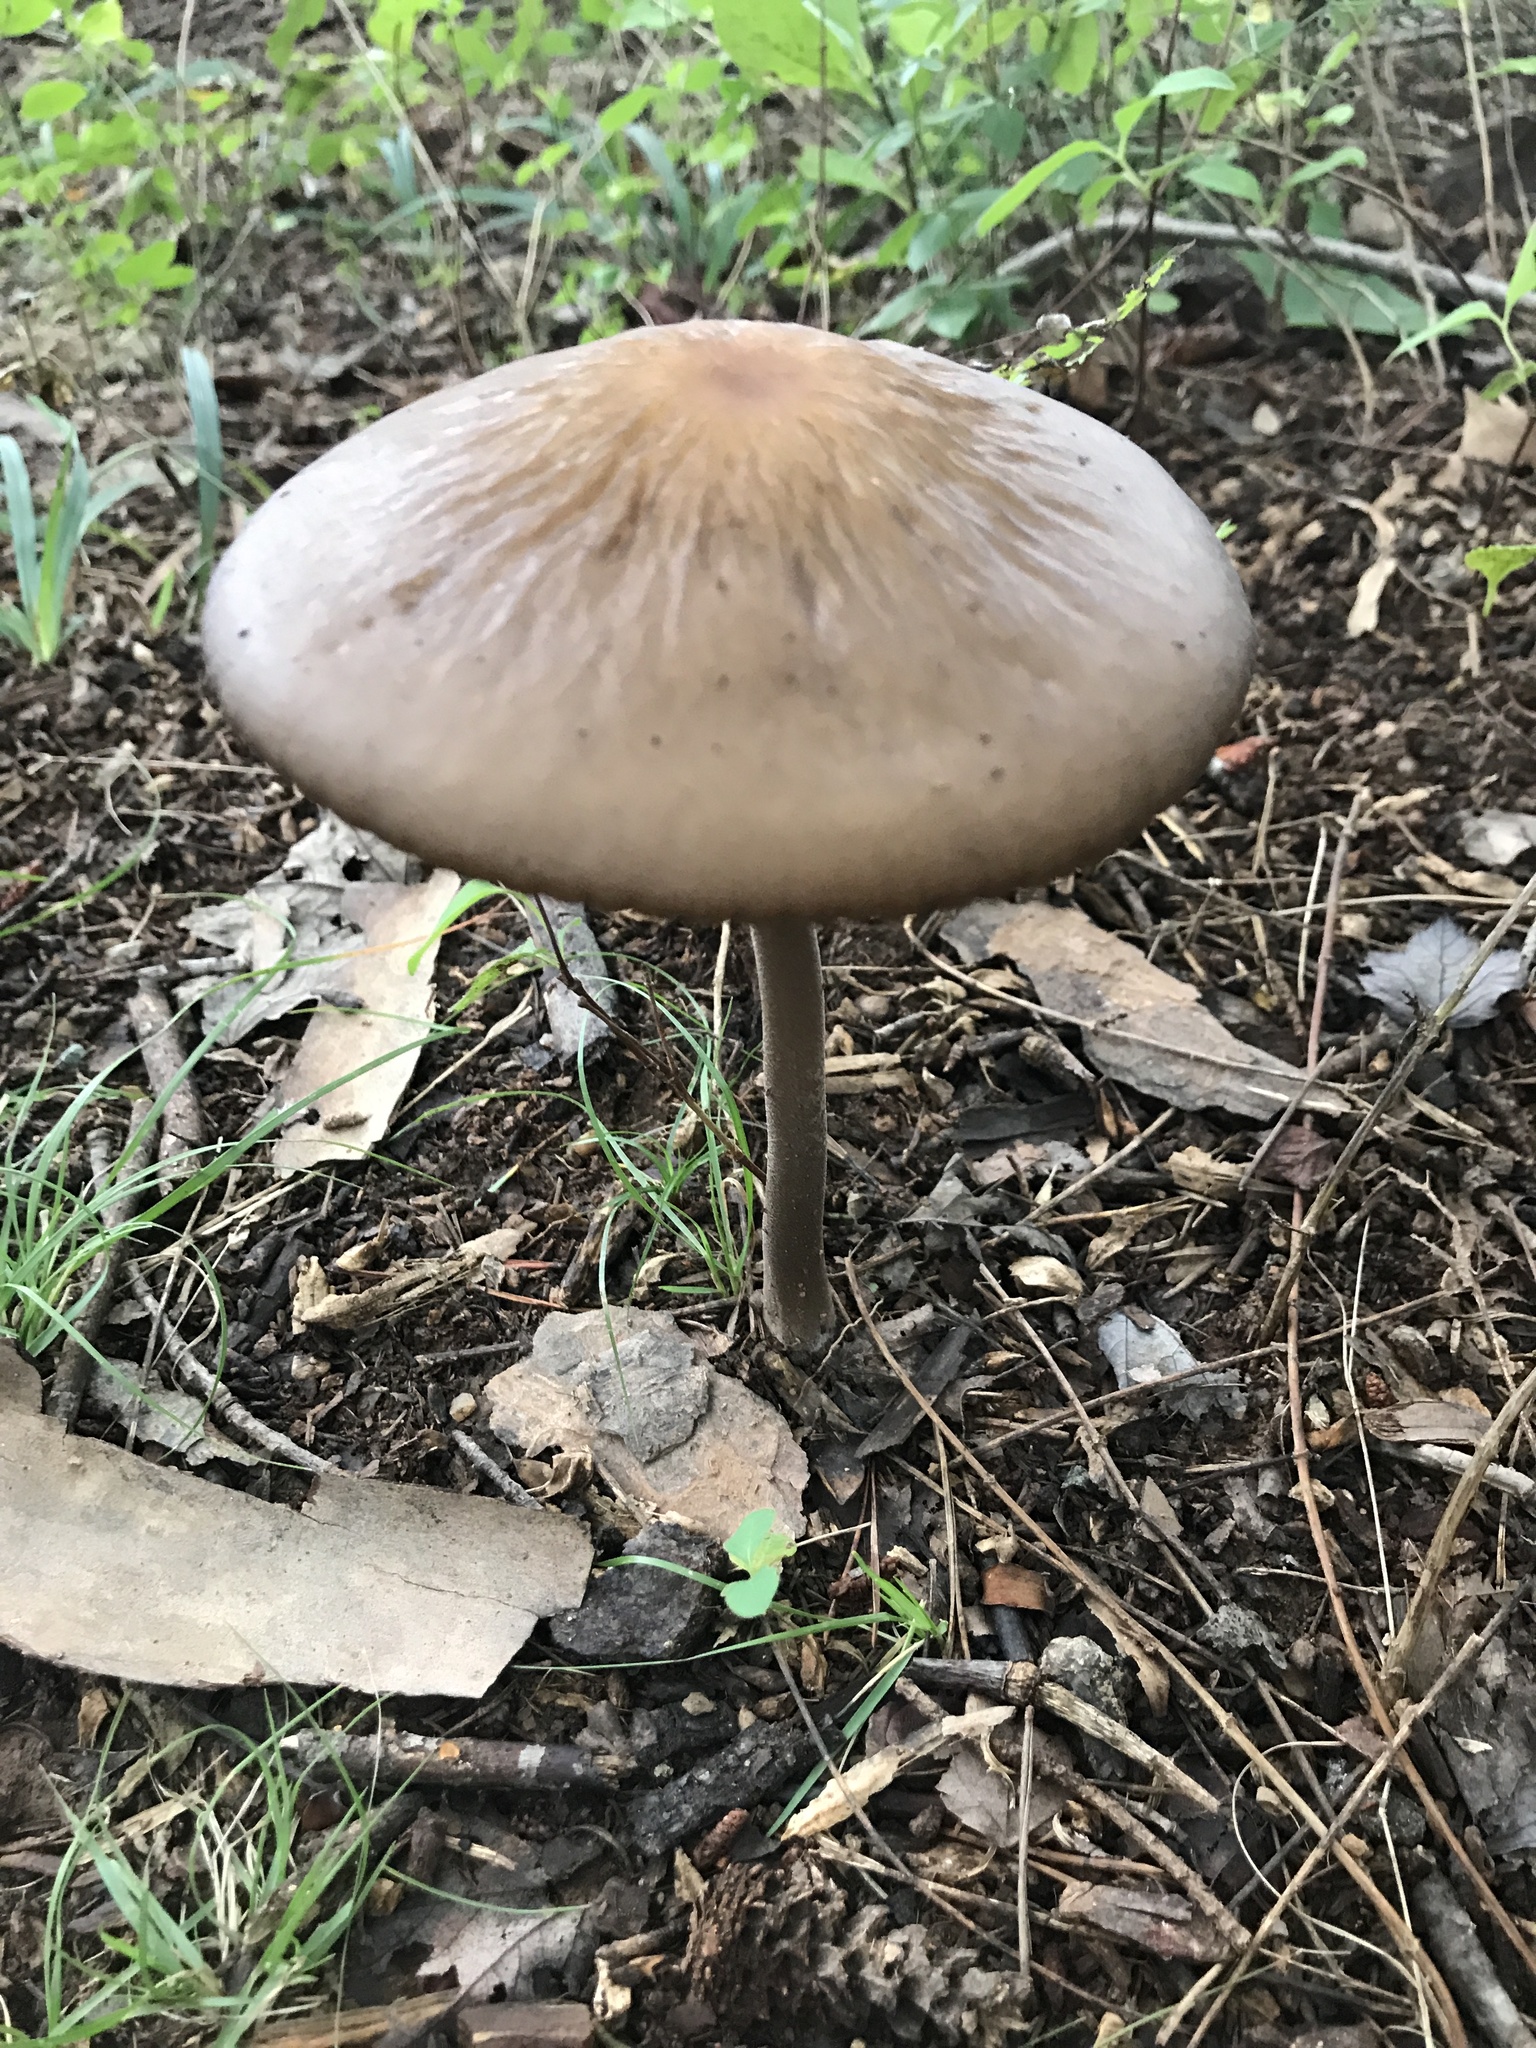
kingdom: Fungi
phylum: Basidiomycota
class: Agaricomycetes
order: Agaricales
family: Physalacriaceae
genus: Hymenopellis
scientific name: Hymenopellis furfuracea
